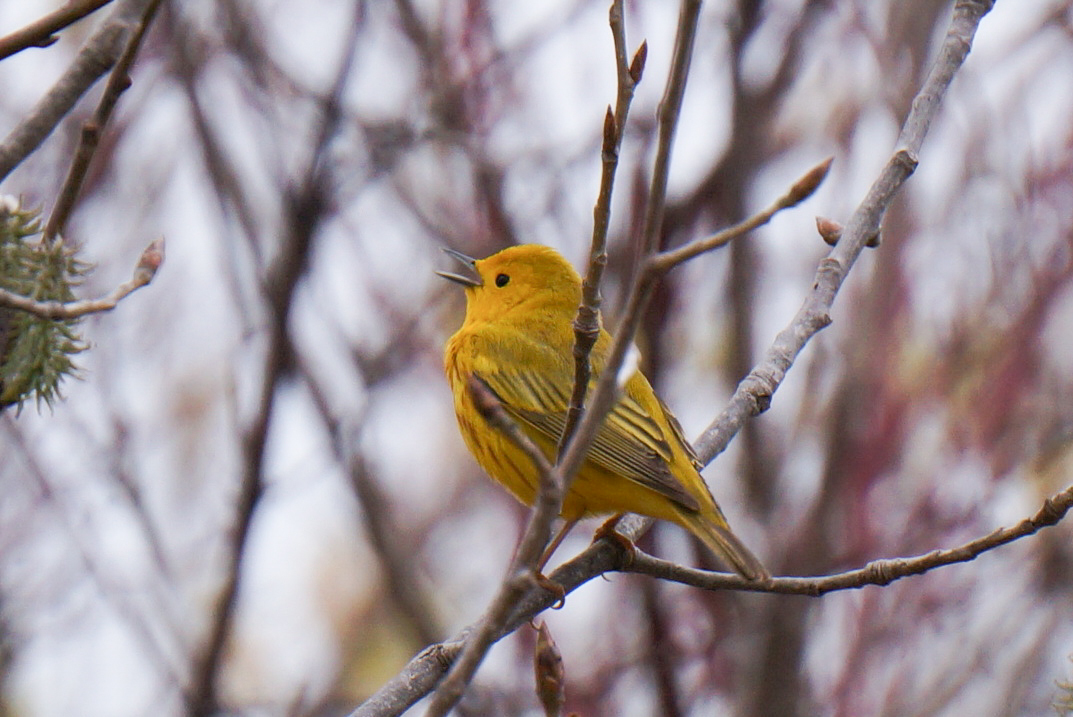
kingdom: Animalia
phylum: Chordata
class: Aves
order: Passeriformes
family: Parulidae
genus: Setophaga
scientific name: Setophaga petechia
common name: Yellow warbler
